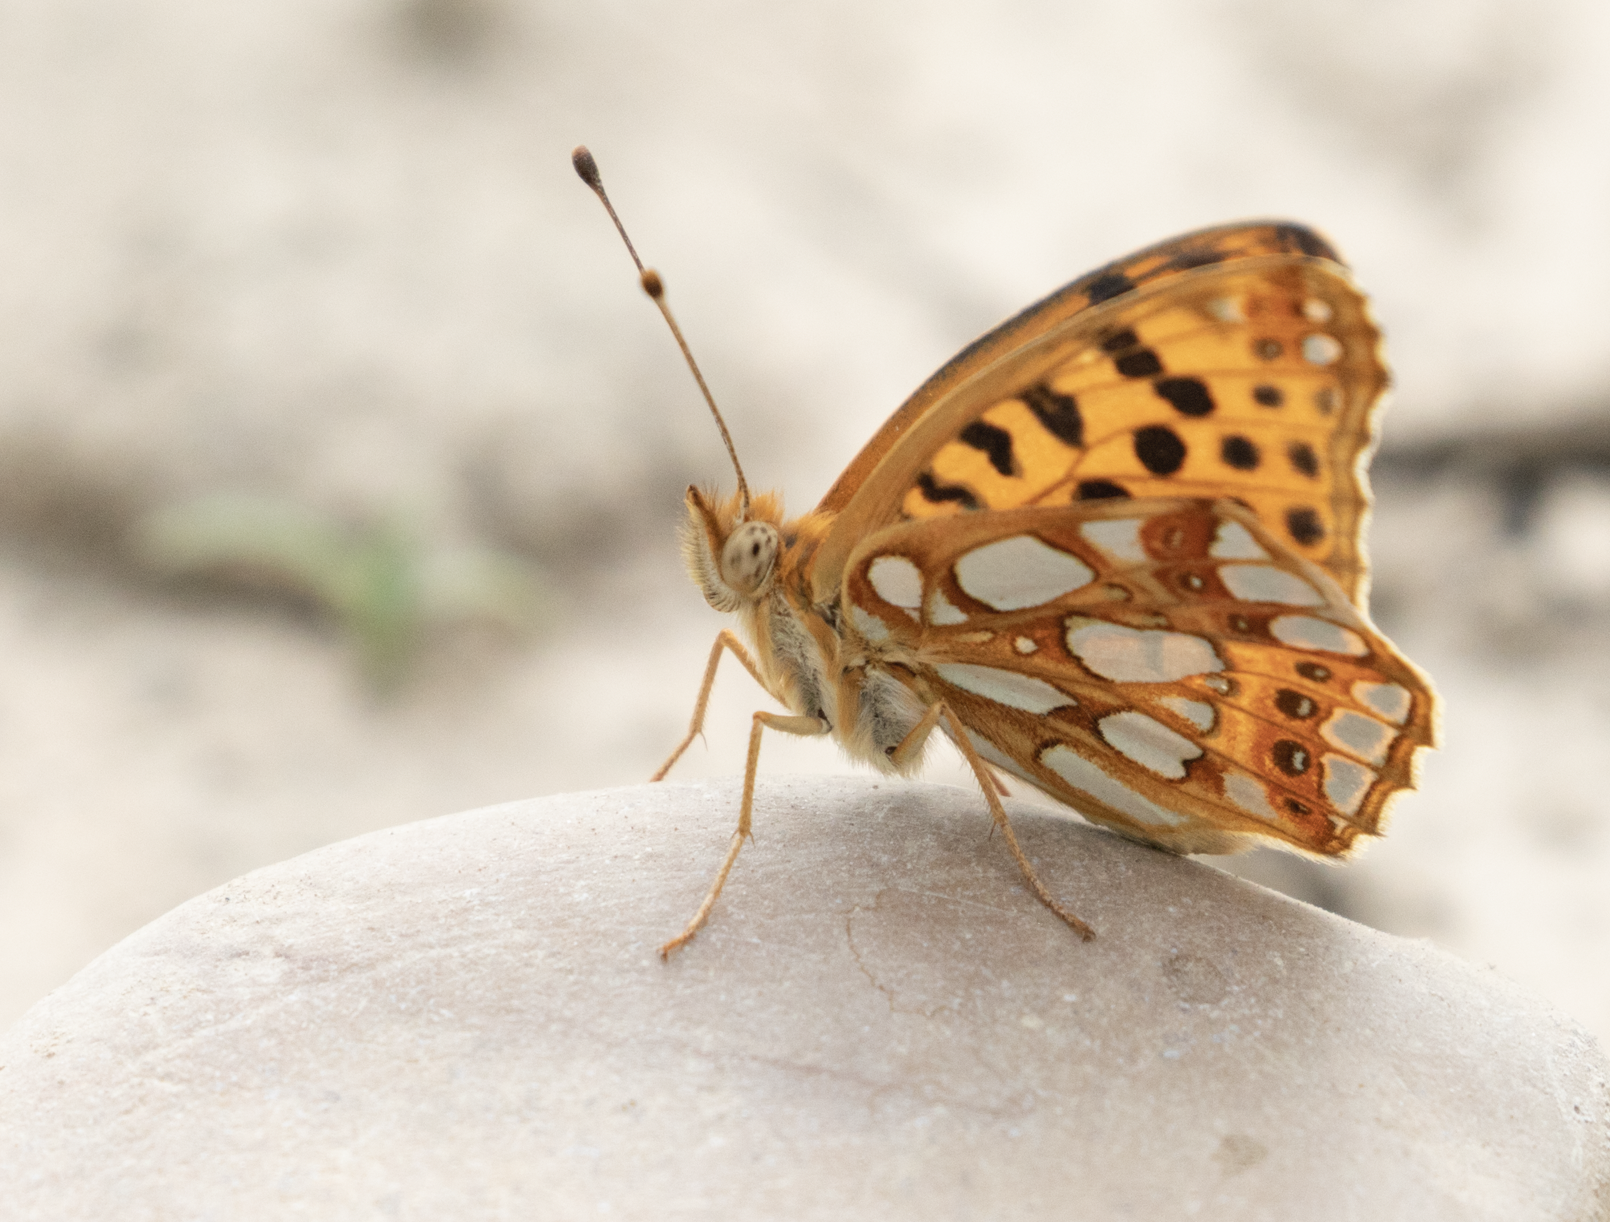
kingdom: Animalia
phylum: Arthropoda
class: Insecta
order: Lepidoptera
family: Nymphalidae
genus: Issoria
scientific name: Issoria lathonia
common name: Queen of spain fritillary
